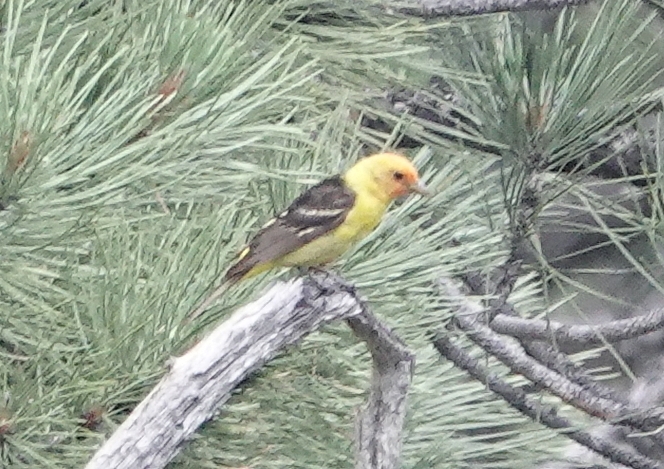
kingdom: Animalia
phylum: Chordata
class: Aves
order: Passeriformes
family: Cardinalidae
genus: Piranga
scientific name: Piranga ludoviciana
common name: Western tanager
